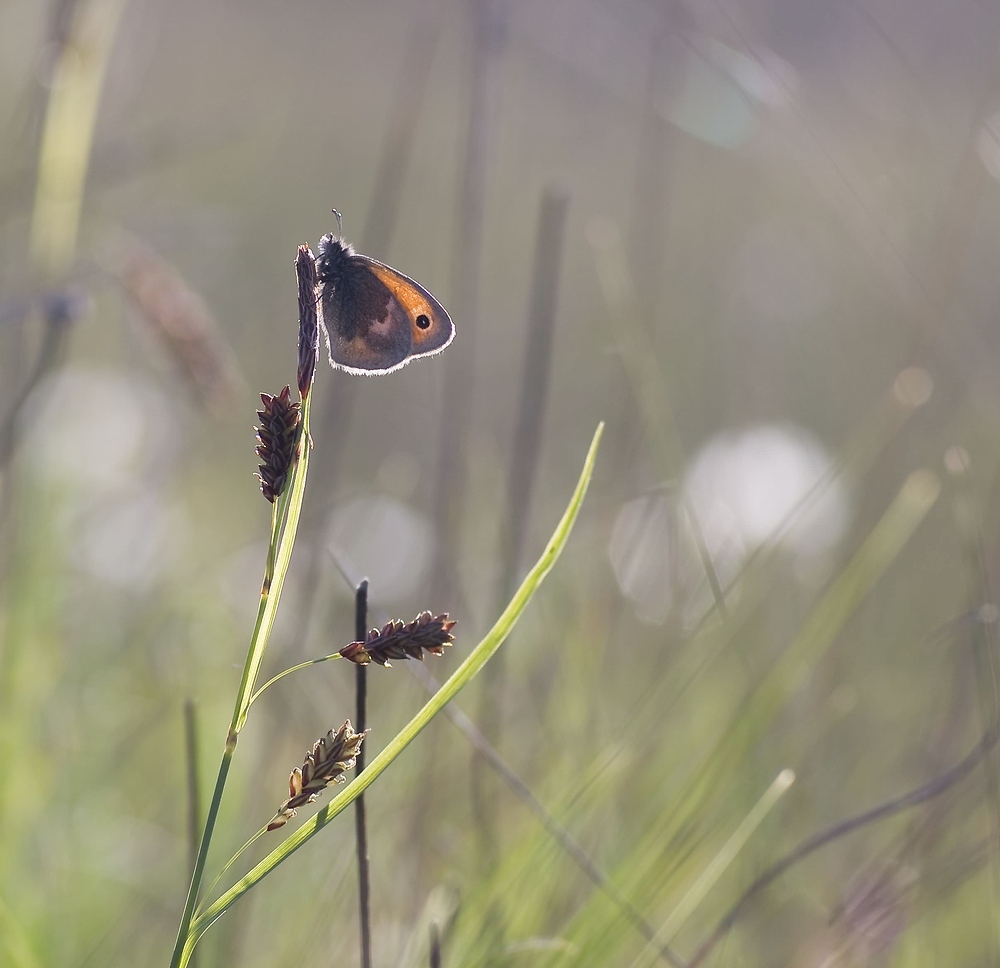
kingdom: Animalia
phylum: Arthropoda
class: Insecta
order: Lepidoptera
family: Nymphalidae
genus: Coenonympha
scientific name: Coenonympha pamphilus
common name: Small heath
